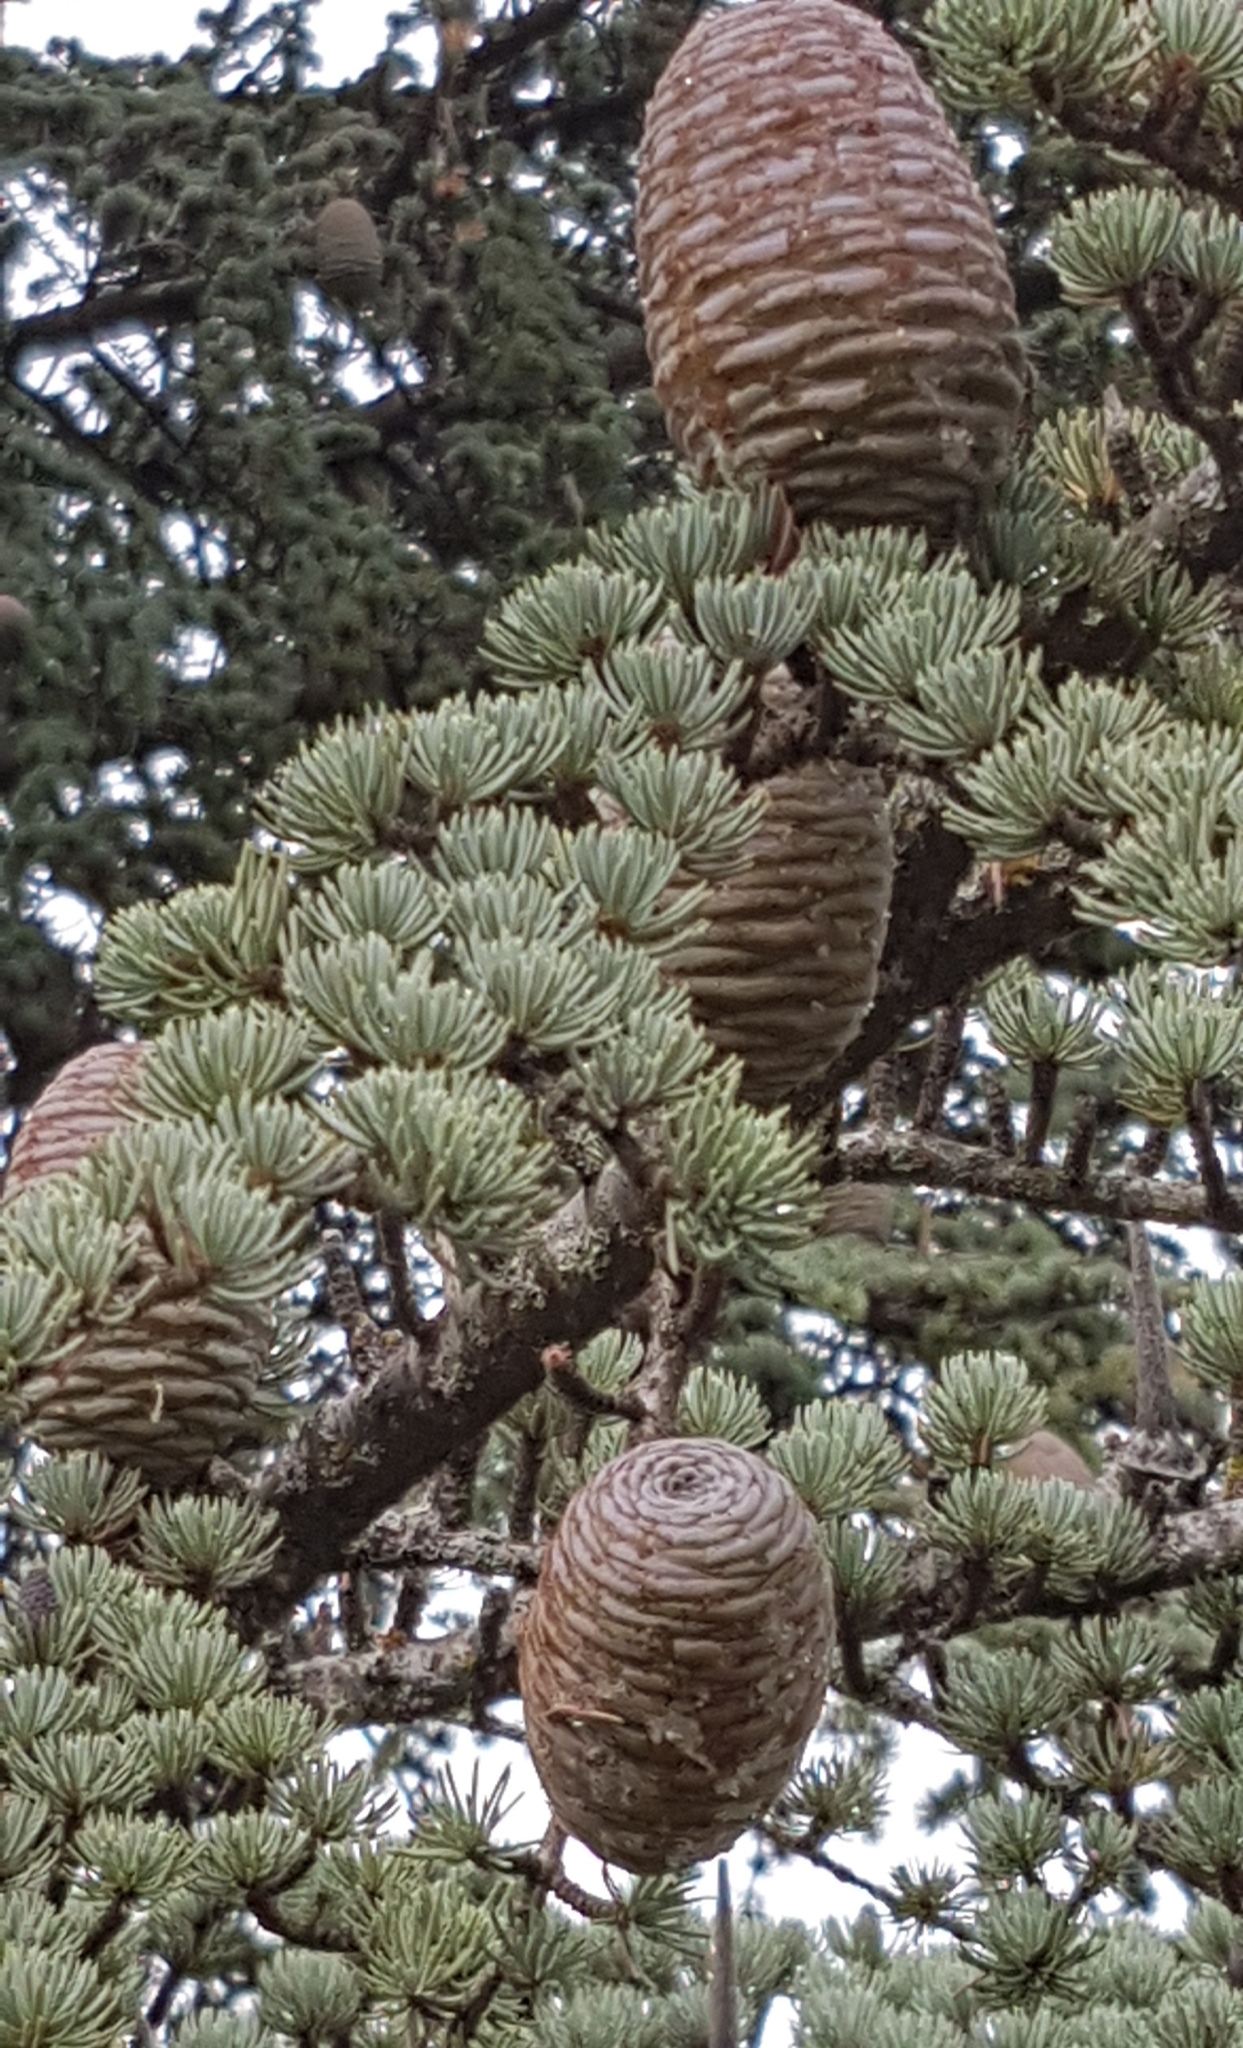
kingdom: Plantae
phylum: Tracheophyta
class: Pinopsida
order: Pinales
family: Pinaceae
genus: Cedrus
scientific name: Cedrus atlantica
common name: Atlas cedar
